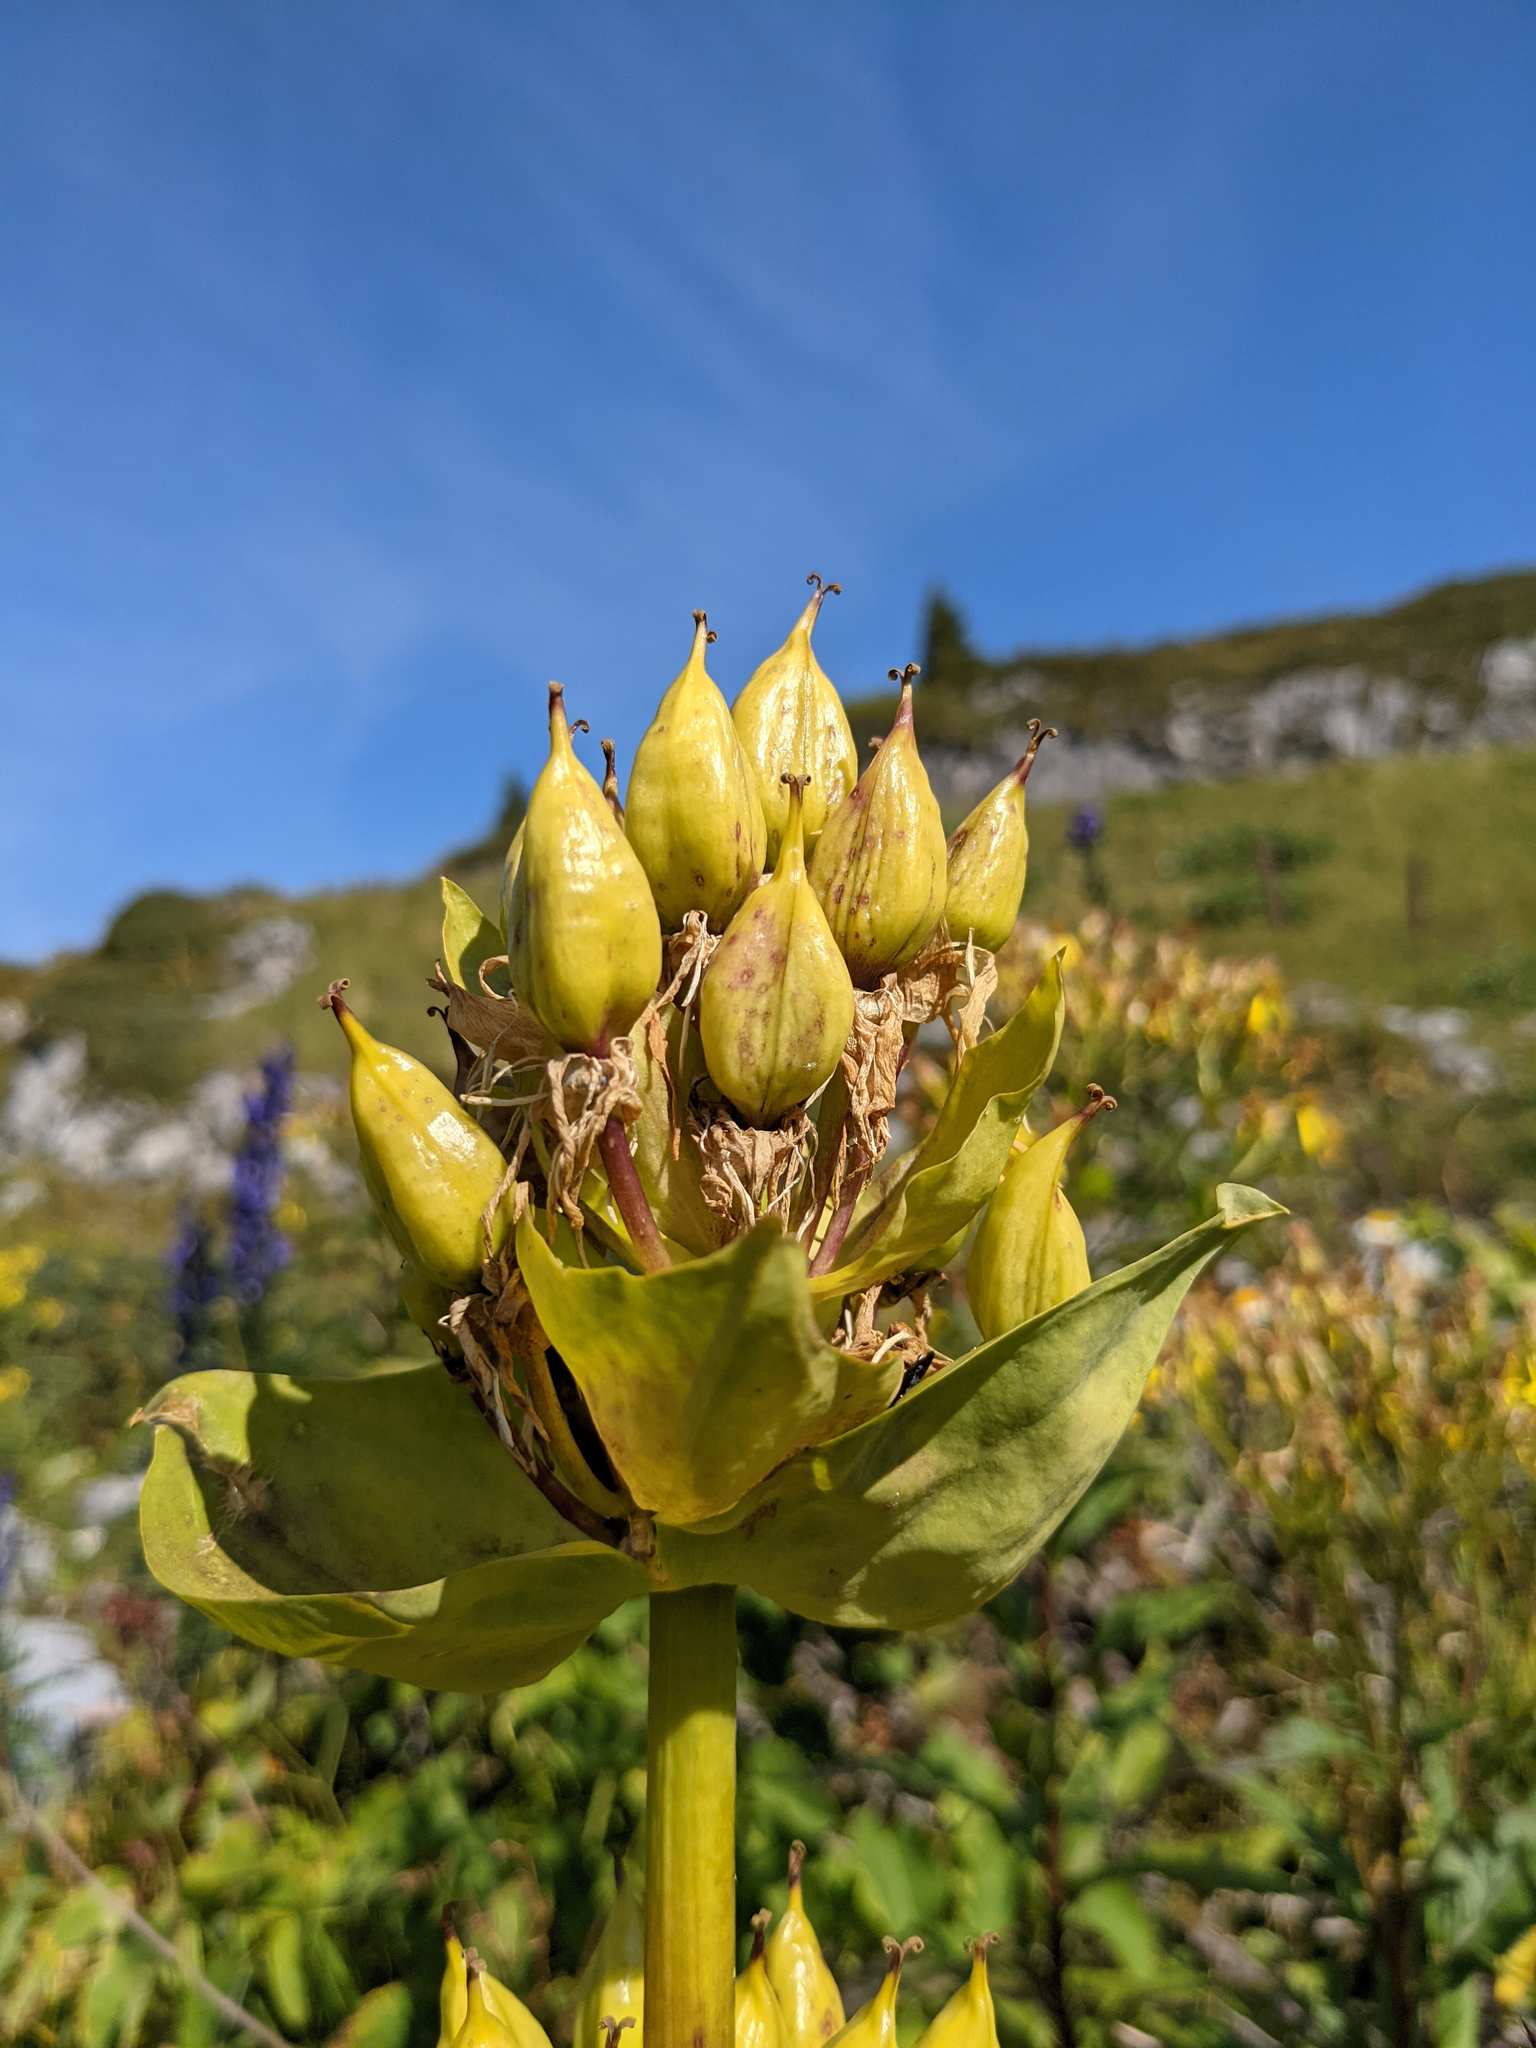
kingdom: Plantae
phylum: Tracheophyta
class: Magnoliopsida
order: Gentianales
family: Gentianaceae
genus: Gentiana
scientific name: Gentiana lutea
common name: Great yellow gentian
